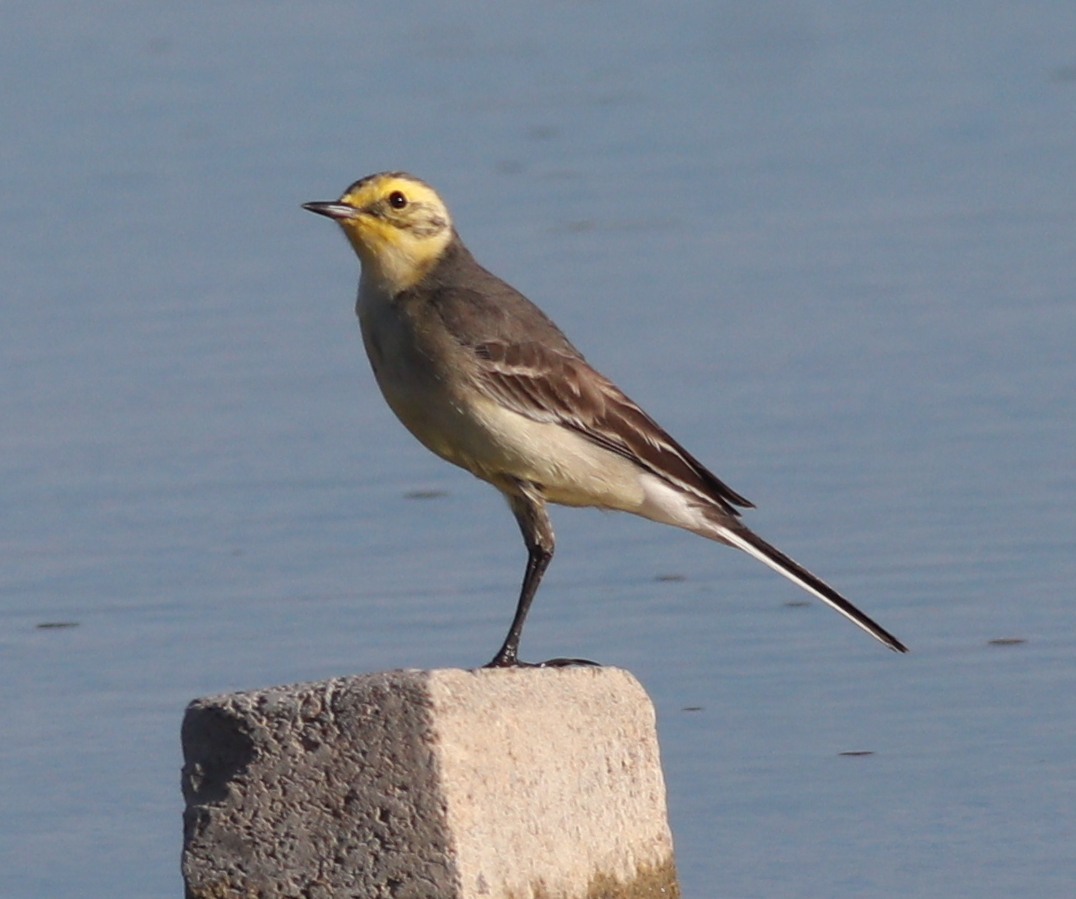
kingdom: Animalia
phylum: Chordata
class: Aves
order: Passeriformes
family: Motacillidae
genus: Motacilla
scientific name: Motacilla citreola
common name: Citrine wagtail
